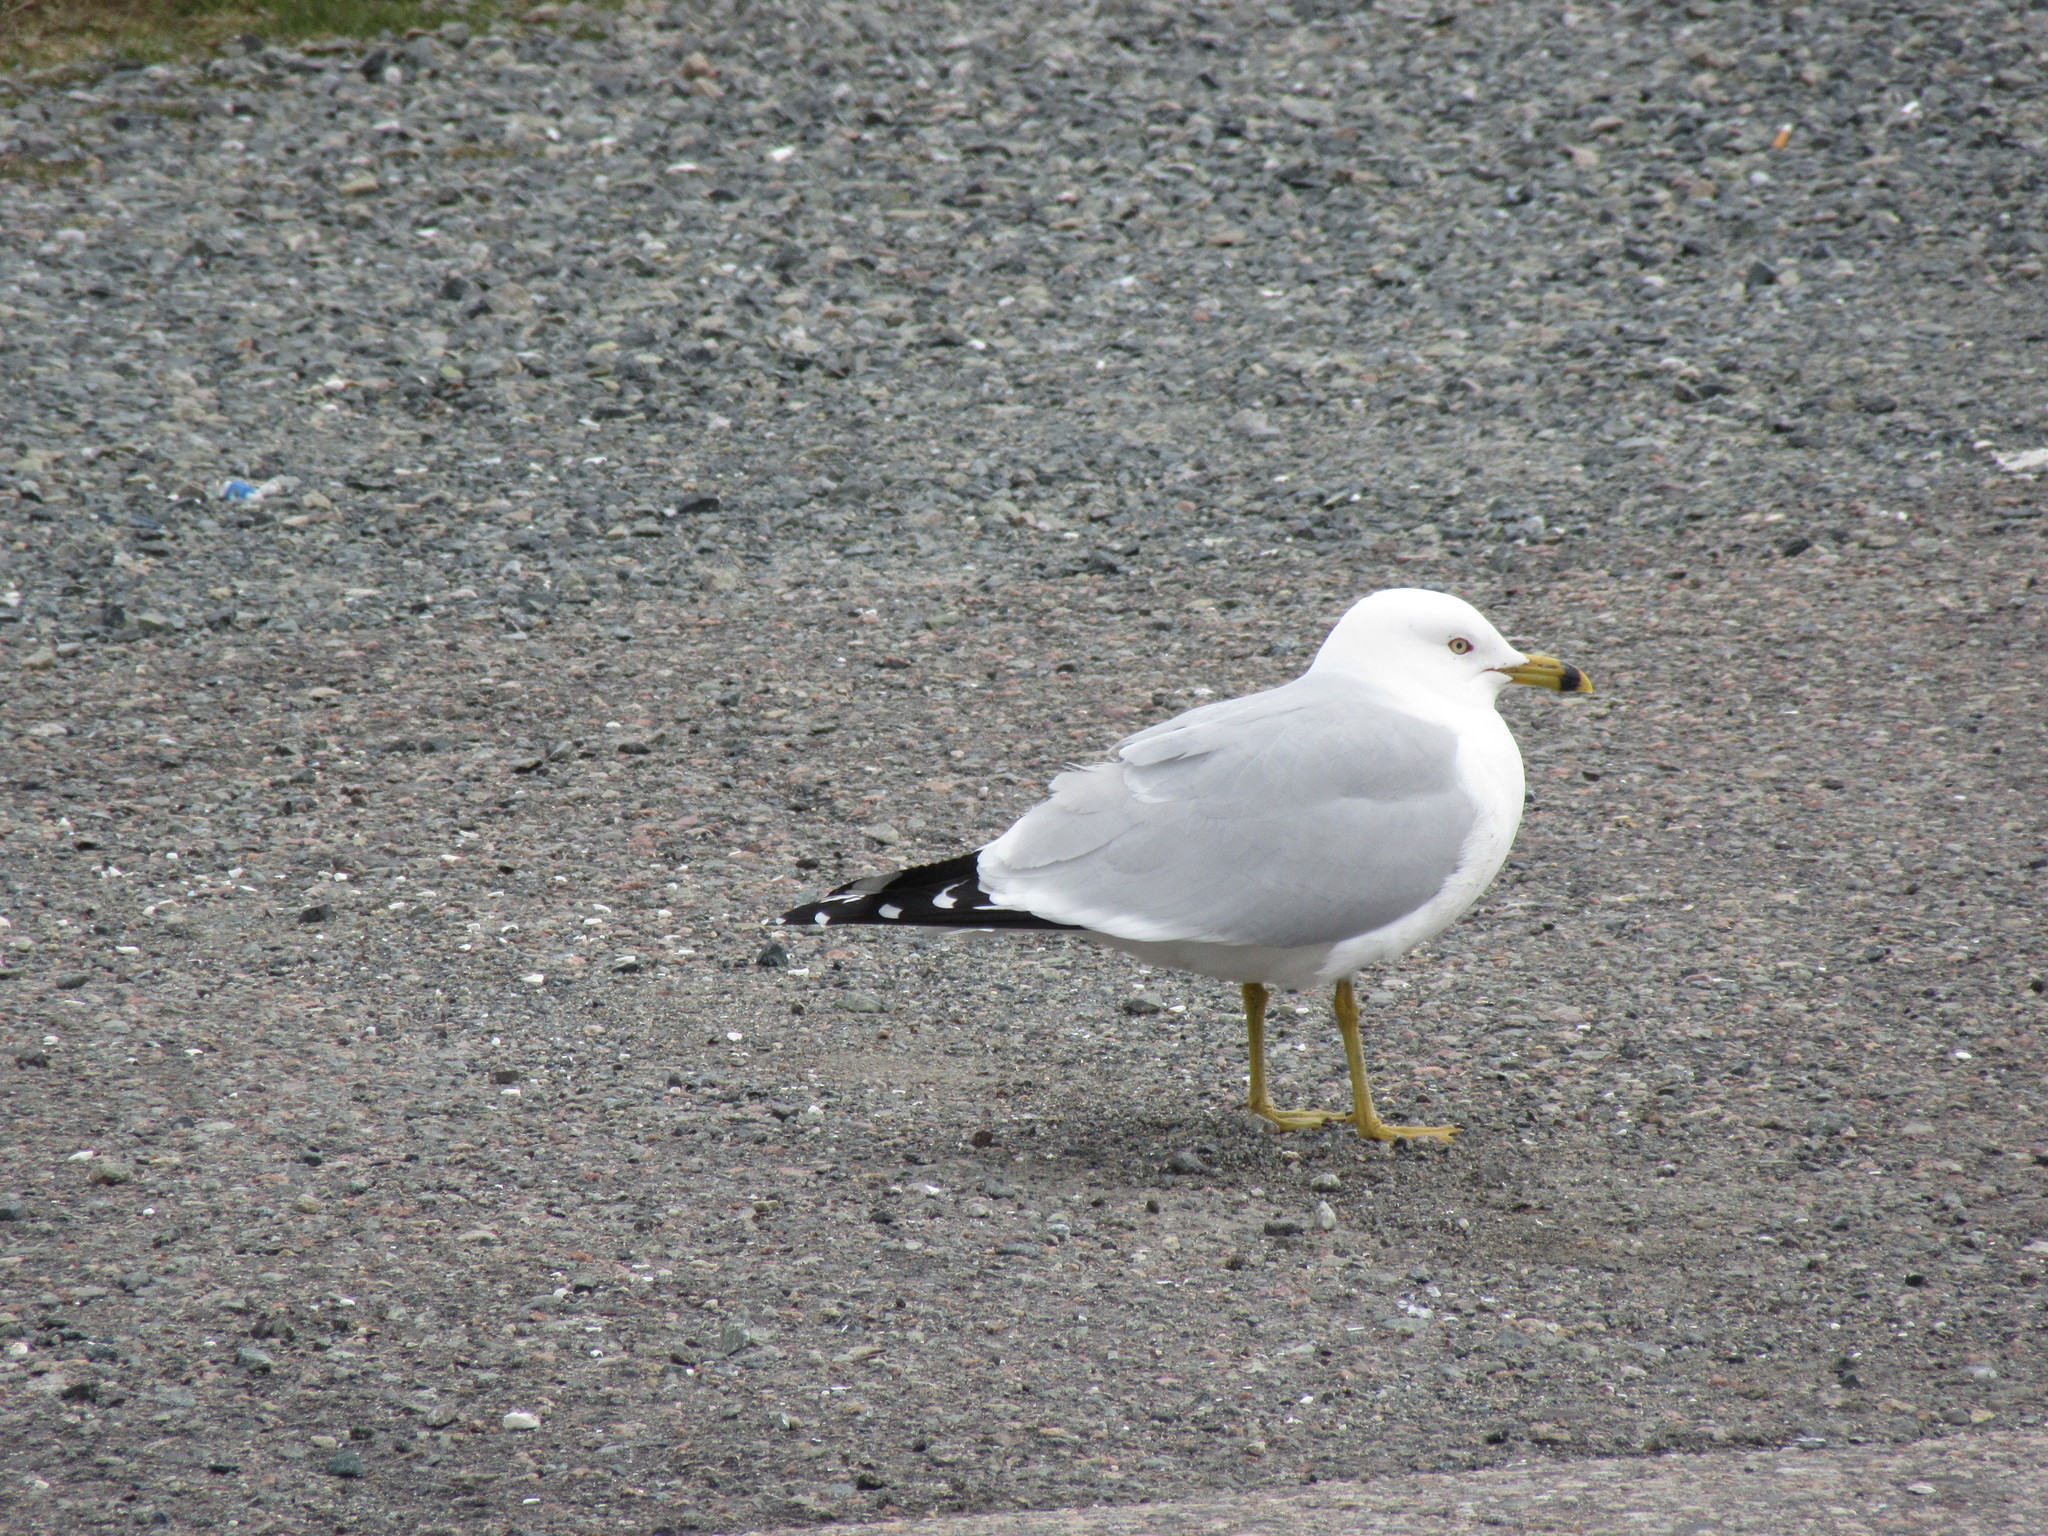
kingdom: Animalia
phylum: Chordata
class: Aves
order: Charadriiformes
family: Laridae
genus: Larus
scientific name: Larus delawarensis
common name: Ring-billed gull
